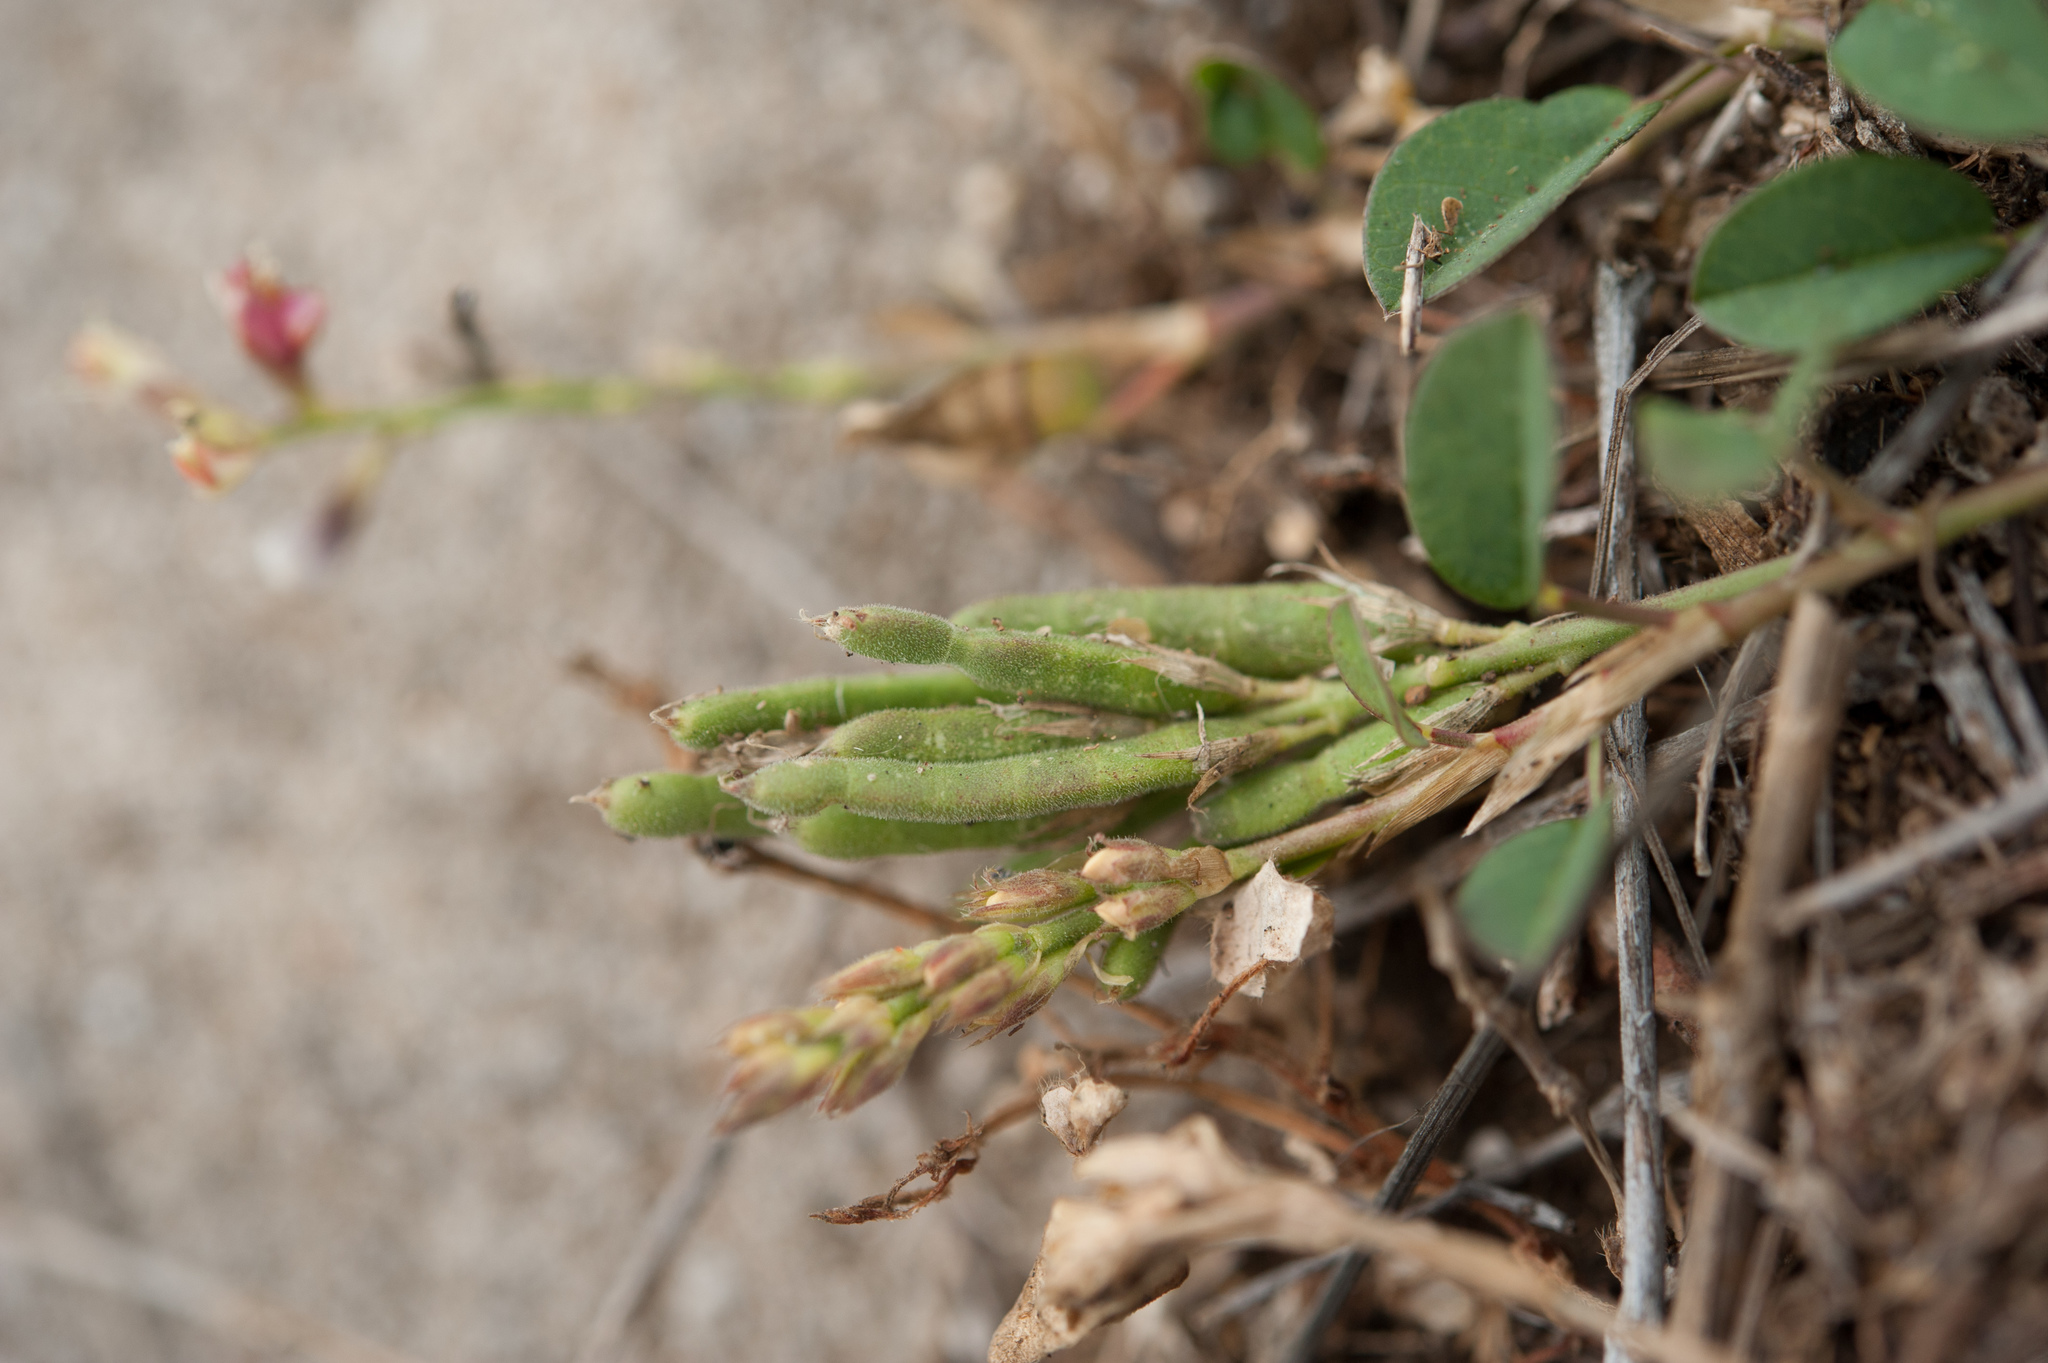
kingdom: Plantae
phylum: Tracheophyta
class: Magnoliopsida
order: Fabales
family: Fabaceae
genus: Alysicarpus
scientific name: Alysicarpus vaginalis
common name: White moneywort
